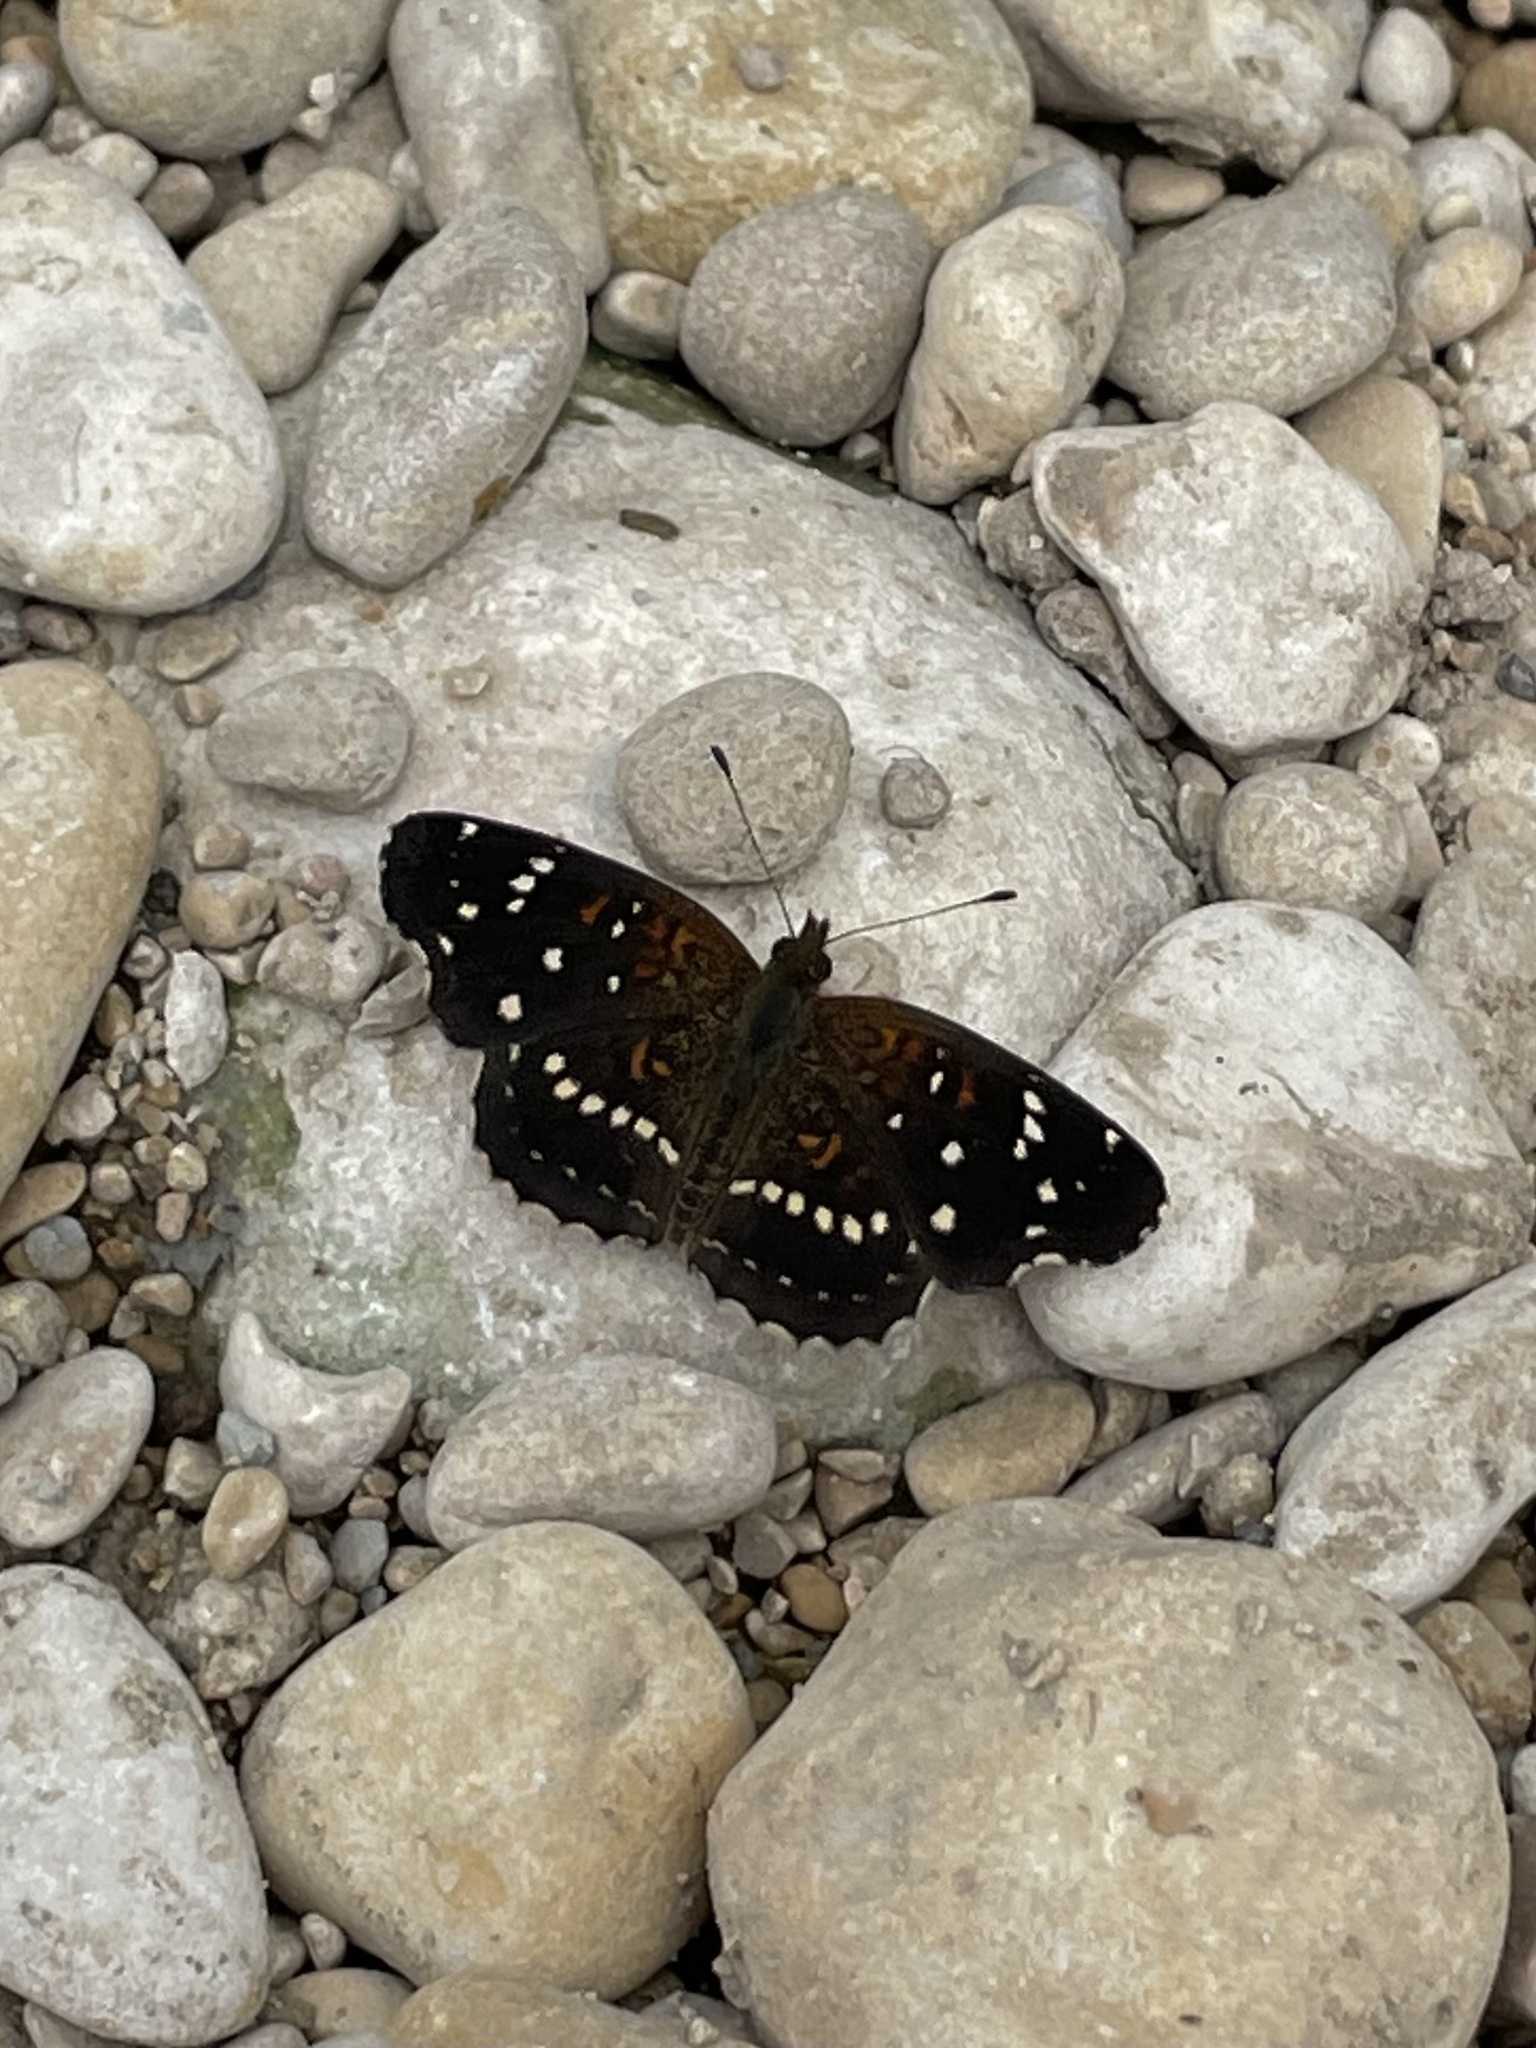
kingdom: Animalia
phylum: Arthropoda
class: Insecta
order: Lepidoptera
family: Nymphalidae
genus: Anthanassa
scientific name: Anthanassa texana
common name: Texan crescent
